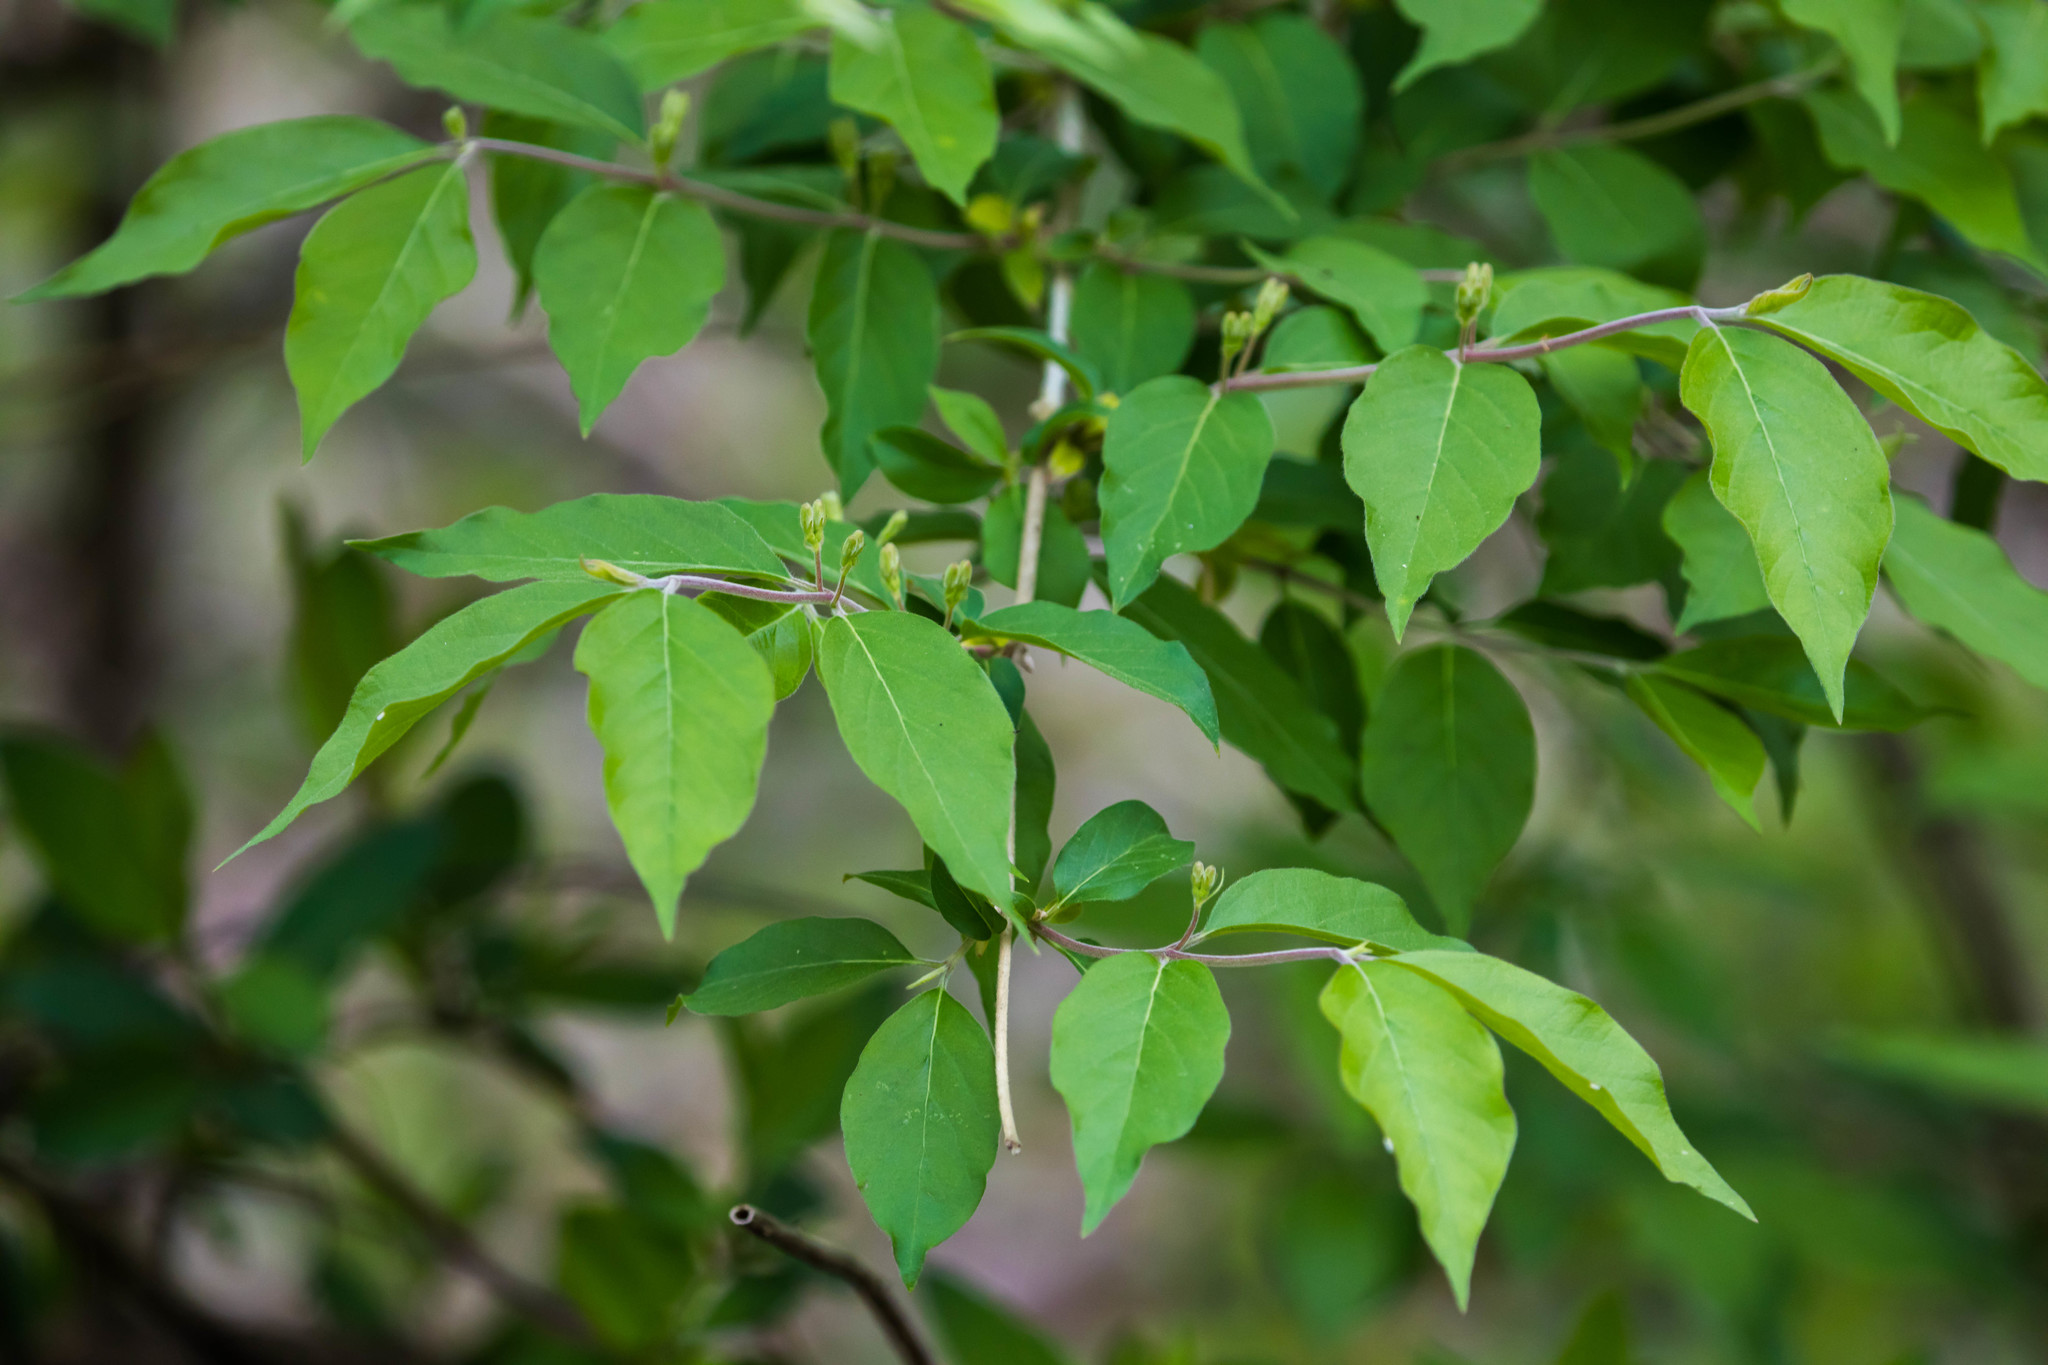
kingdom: Plantae
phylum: Tracheophyta
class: Magnoliopsida
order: Dipsacales
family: Caprifoliaceae
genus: Lonicera
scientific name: Lonicera maackii
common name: Amur honeysuckle
